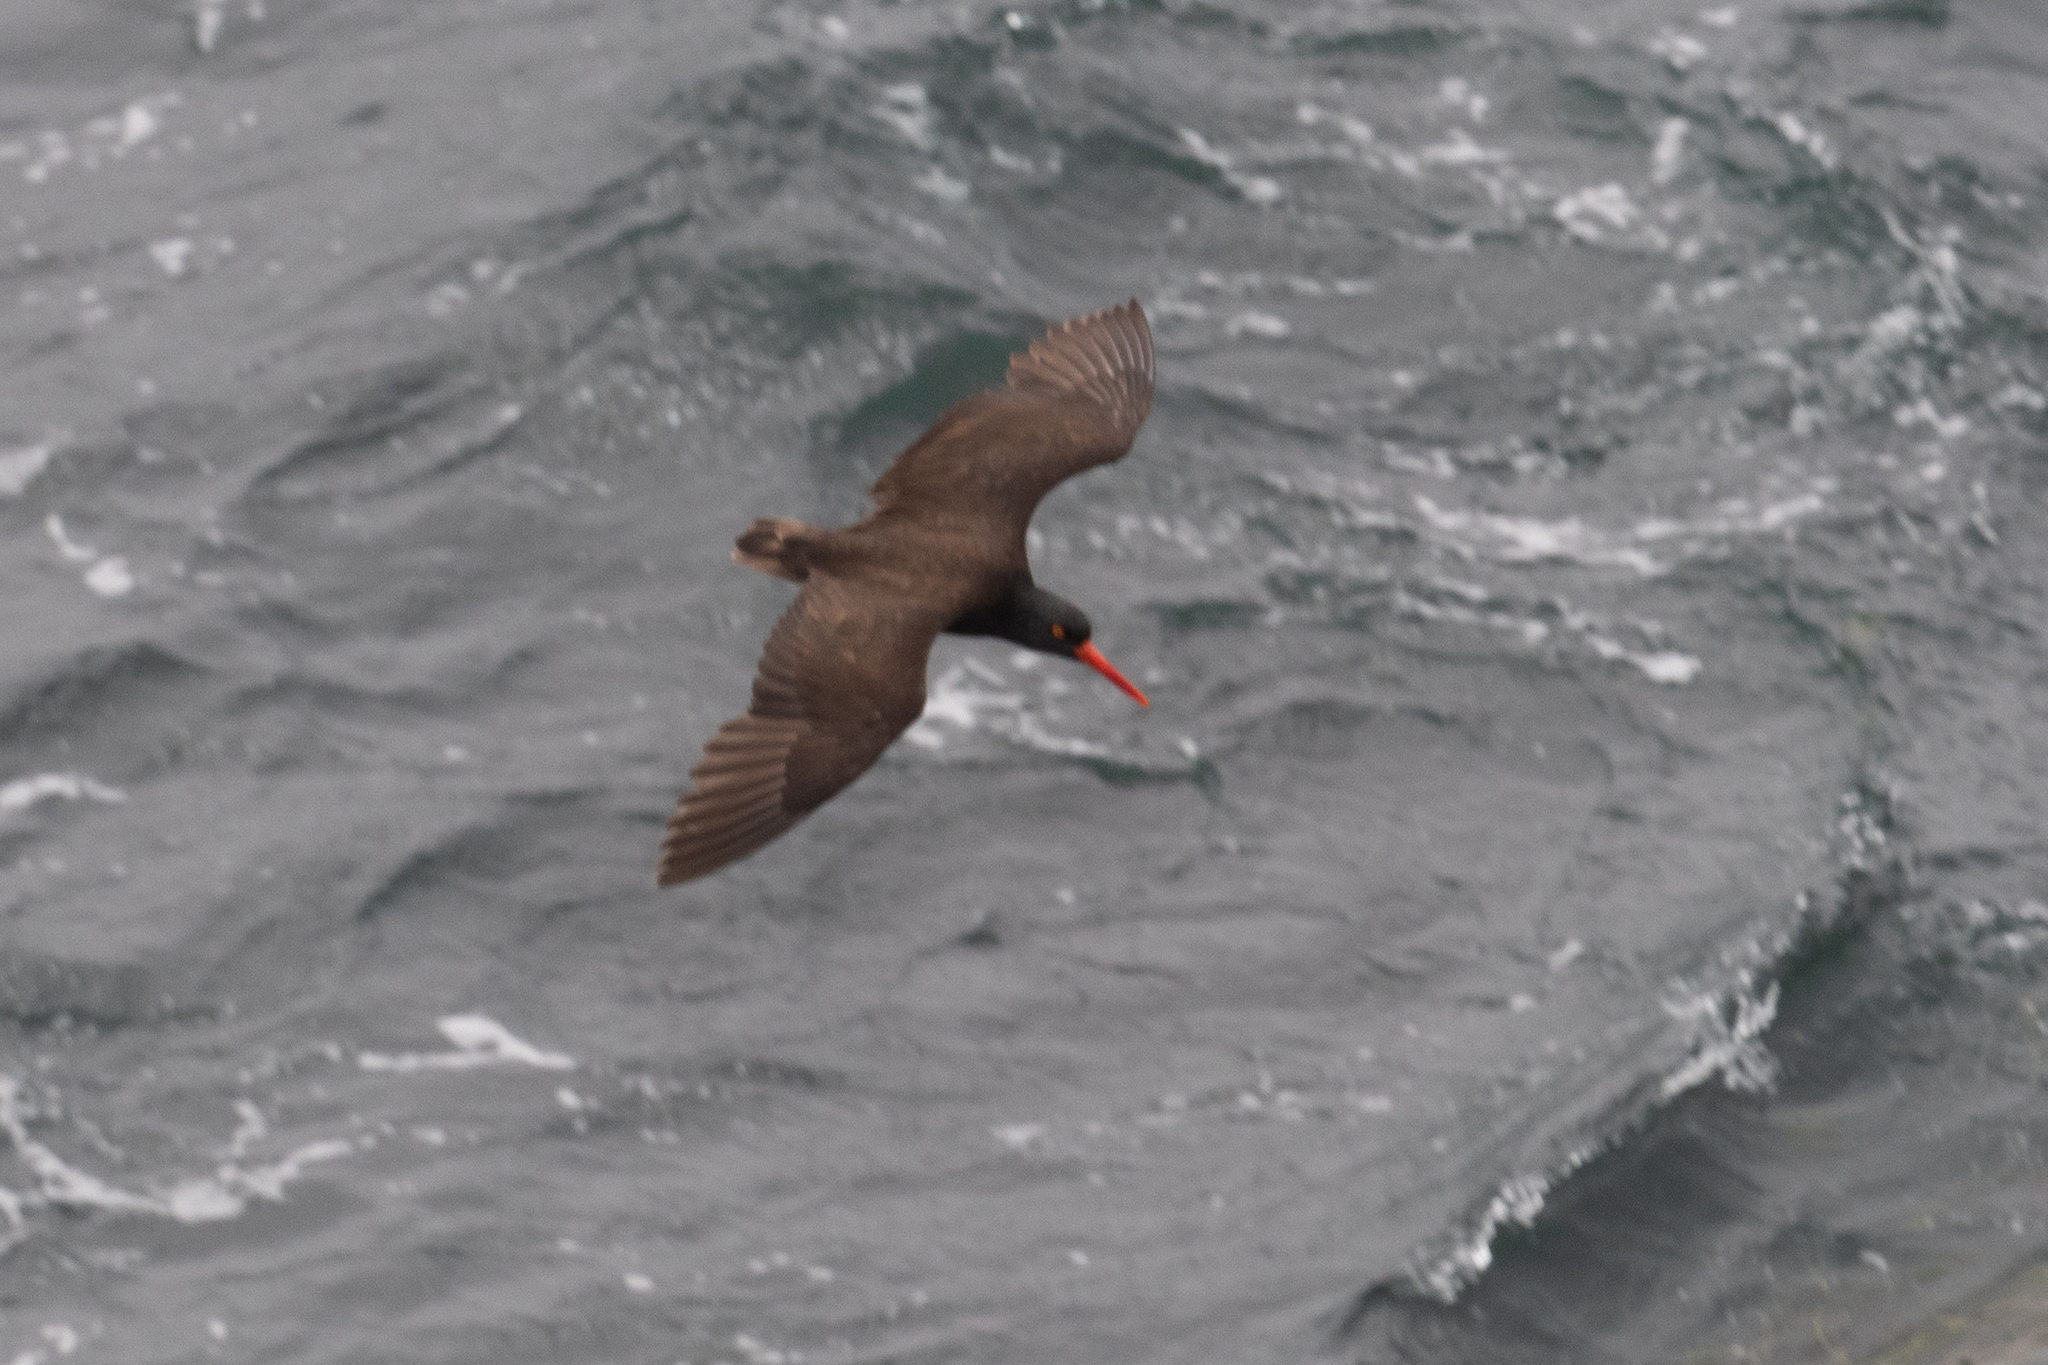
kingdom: Animalia
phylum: Chordata
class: Aves
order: Charadriiformes
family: Haematopodidae
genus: Haematopus
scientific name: Haematopus bachmani
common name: Black oystercatcher
